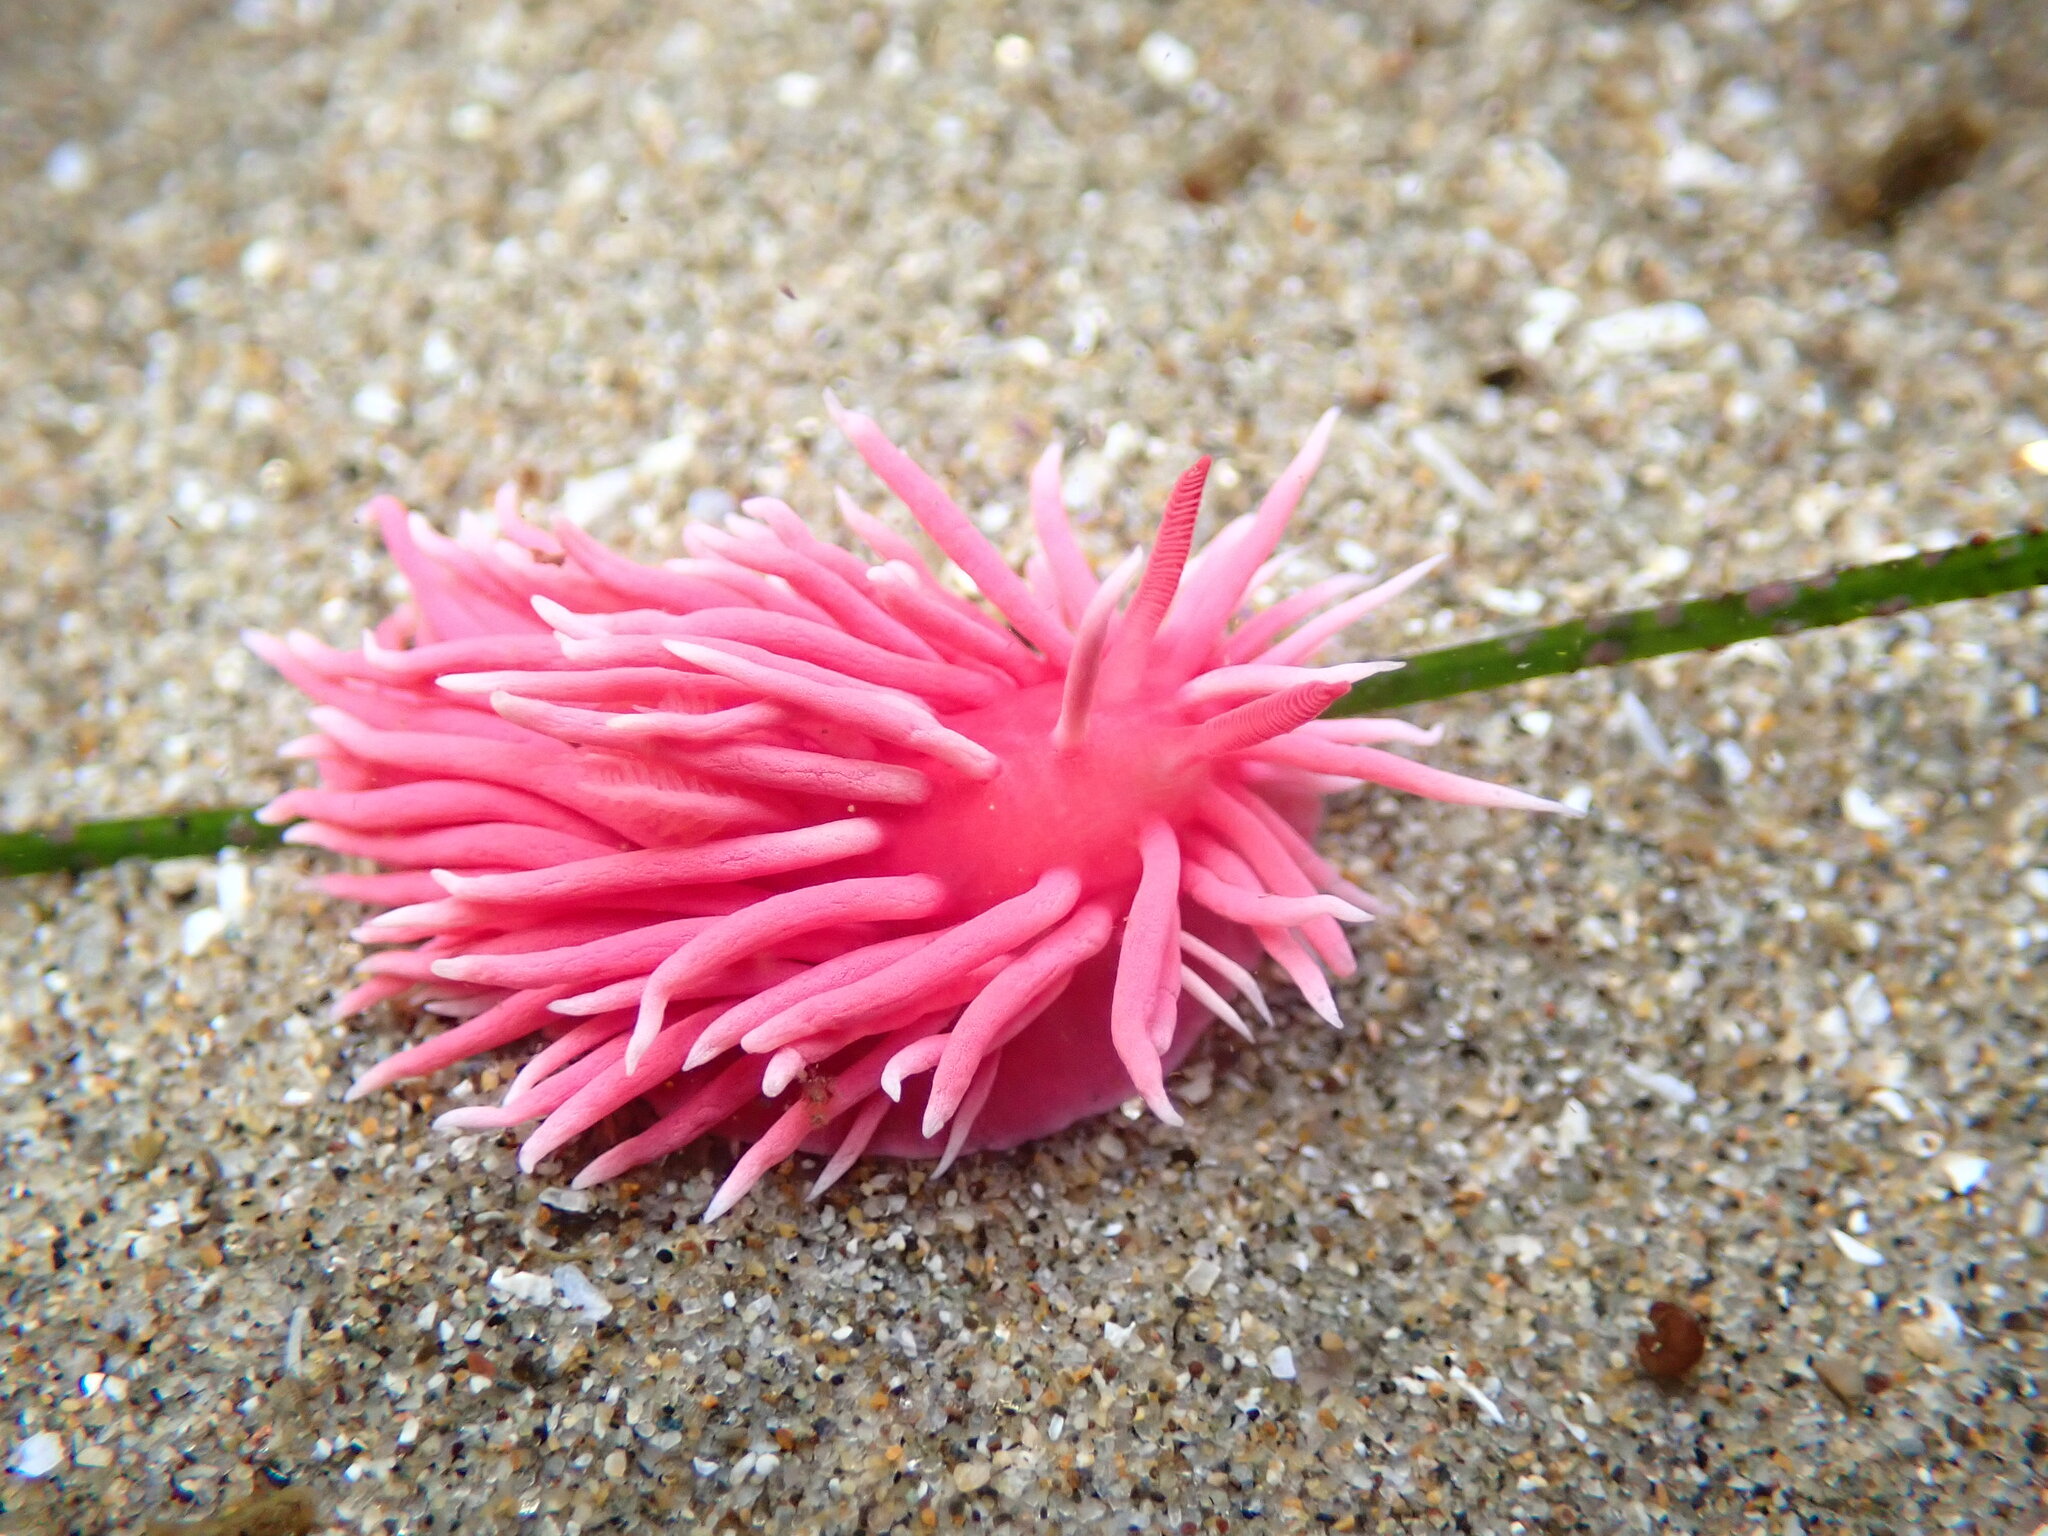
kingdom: Animalia
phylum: Mollusca
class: Gastropoda
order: Nudibranchia
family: Goniodorididae
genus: Okenia
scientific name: Okenia
